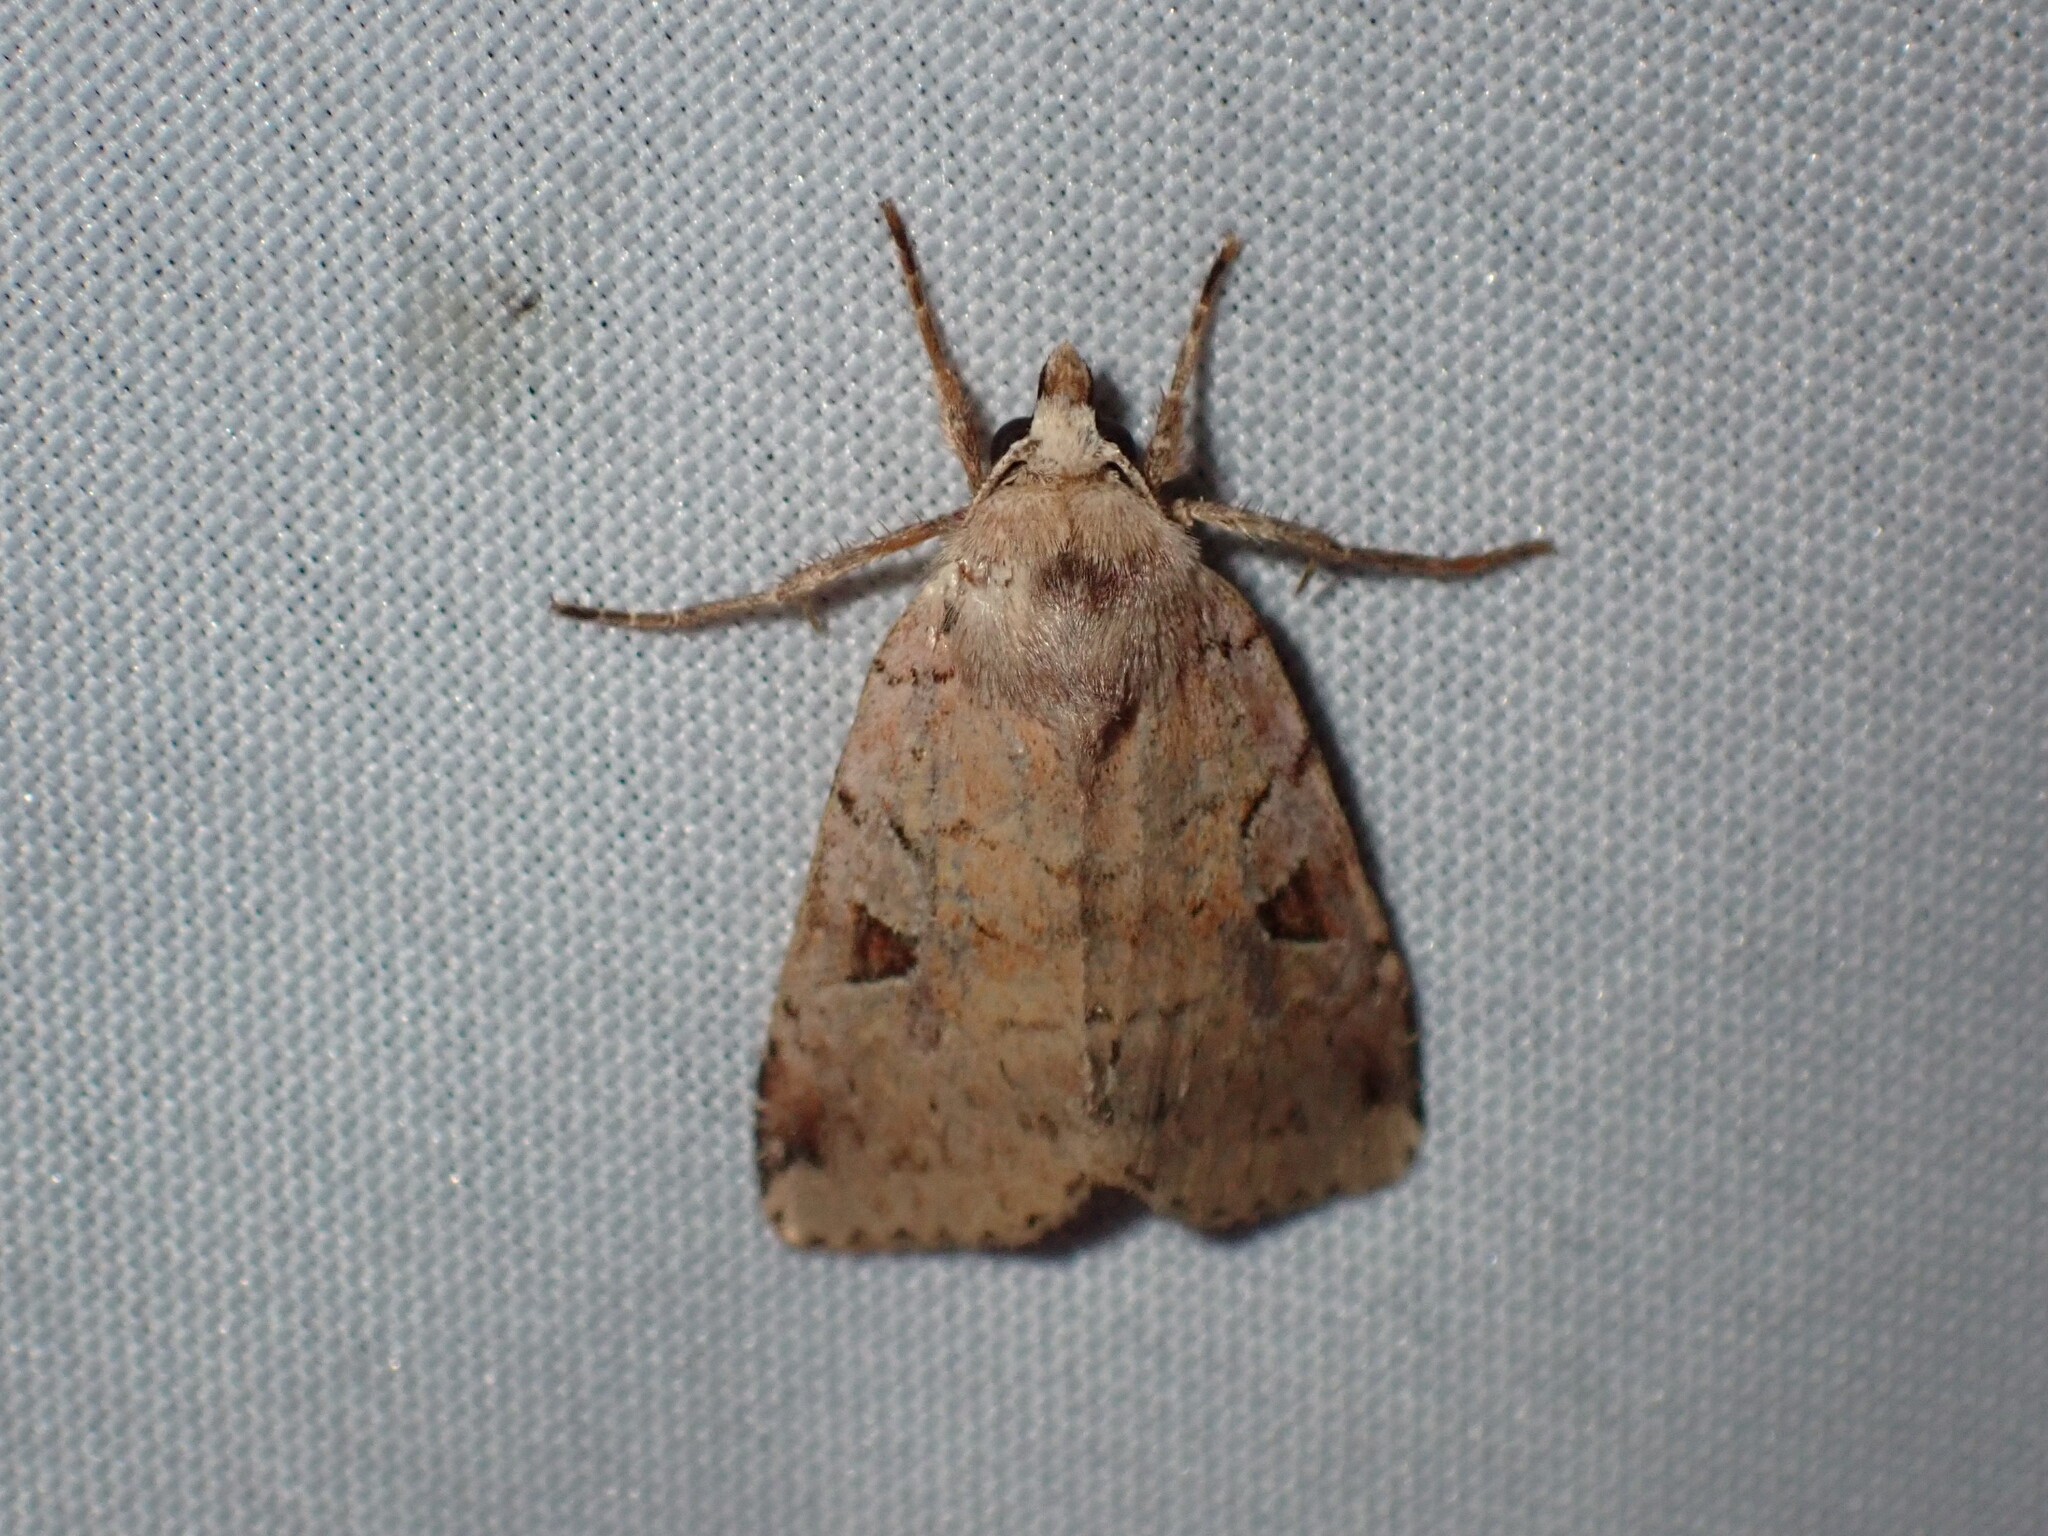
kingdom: Animalia
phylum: Arthropoda
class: Insecta
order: Lepidoptera
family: Noctuidae
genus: Xestia
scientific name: Xestia smithii
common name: Smith's dart
